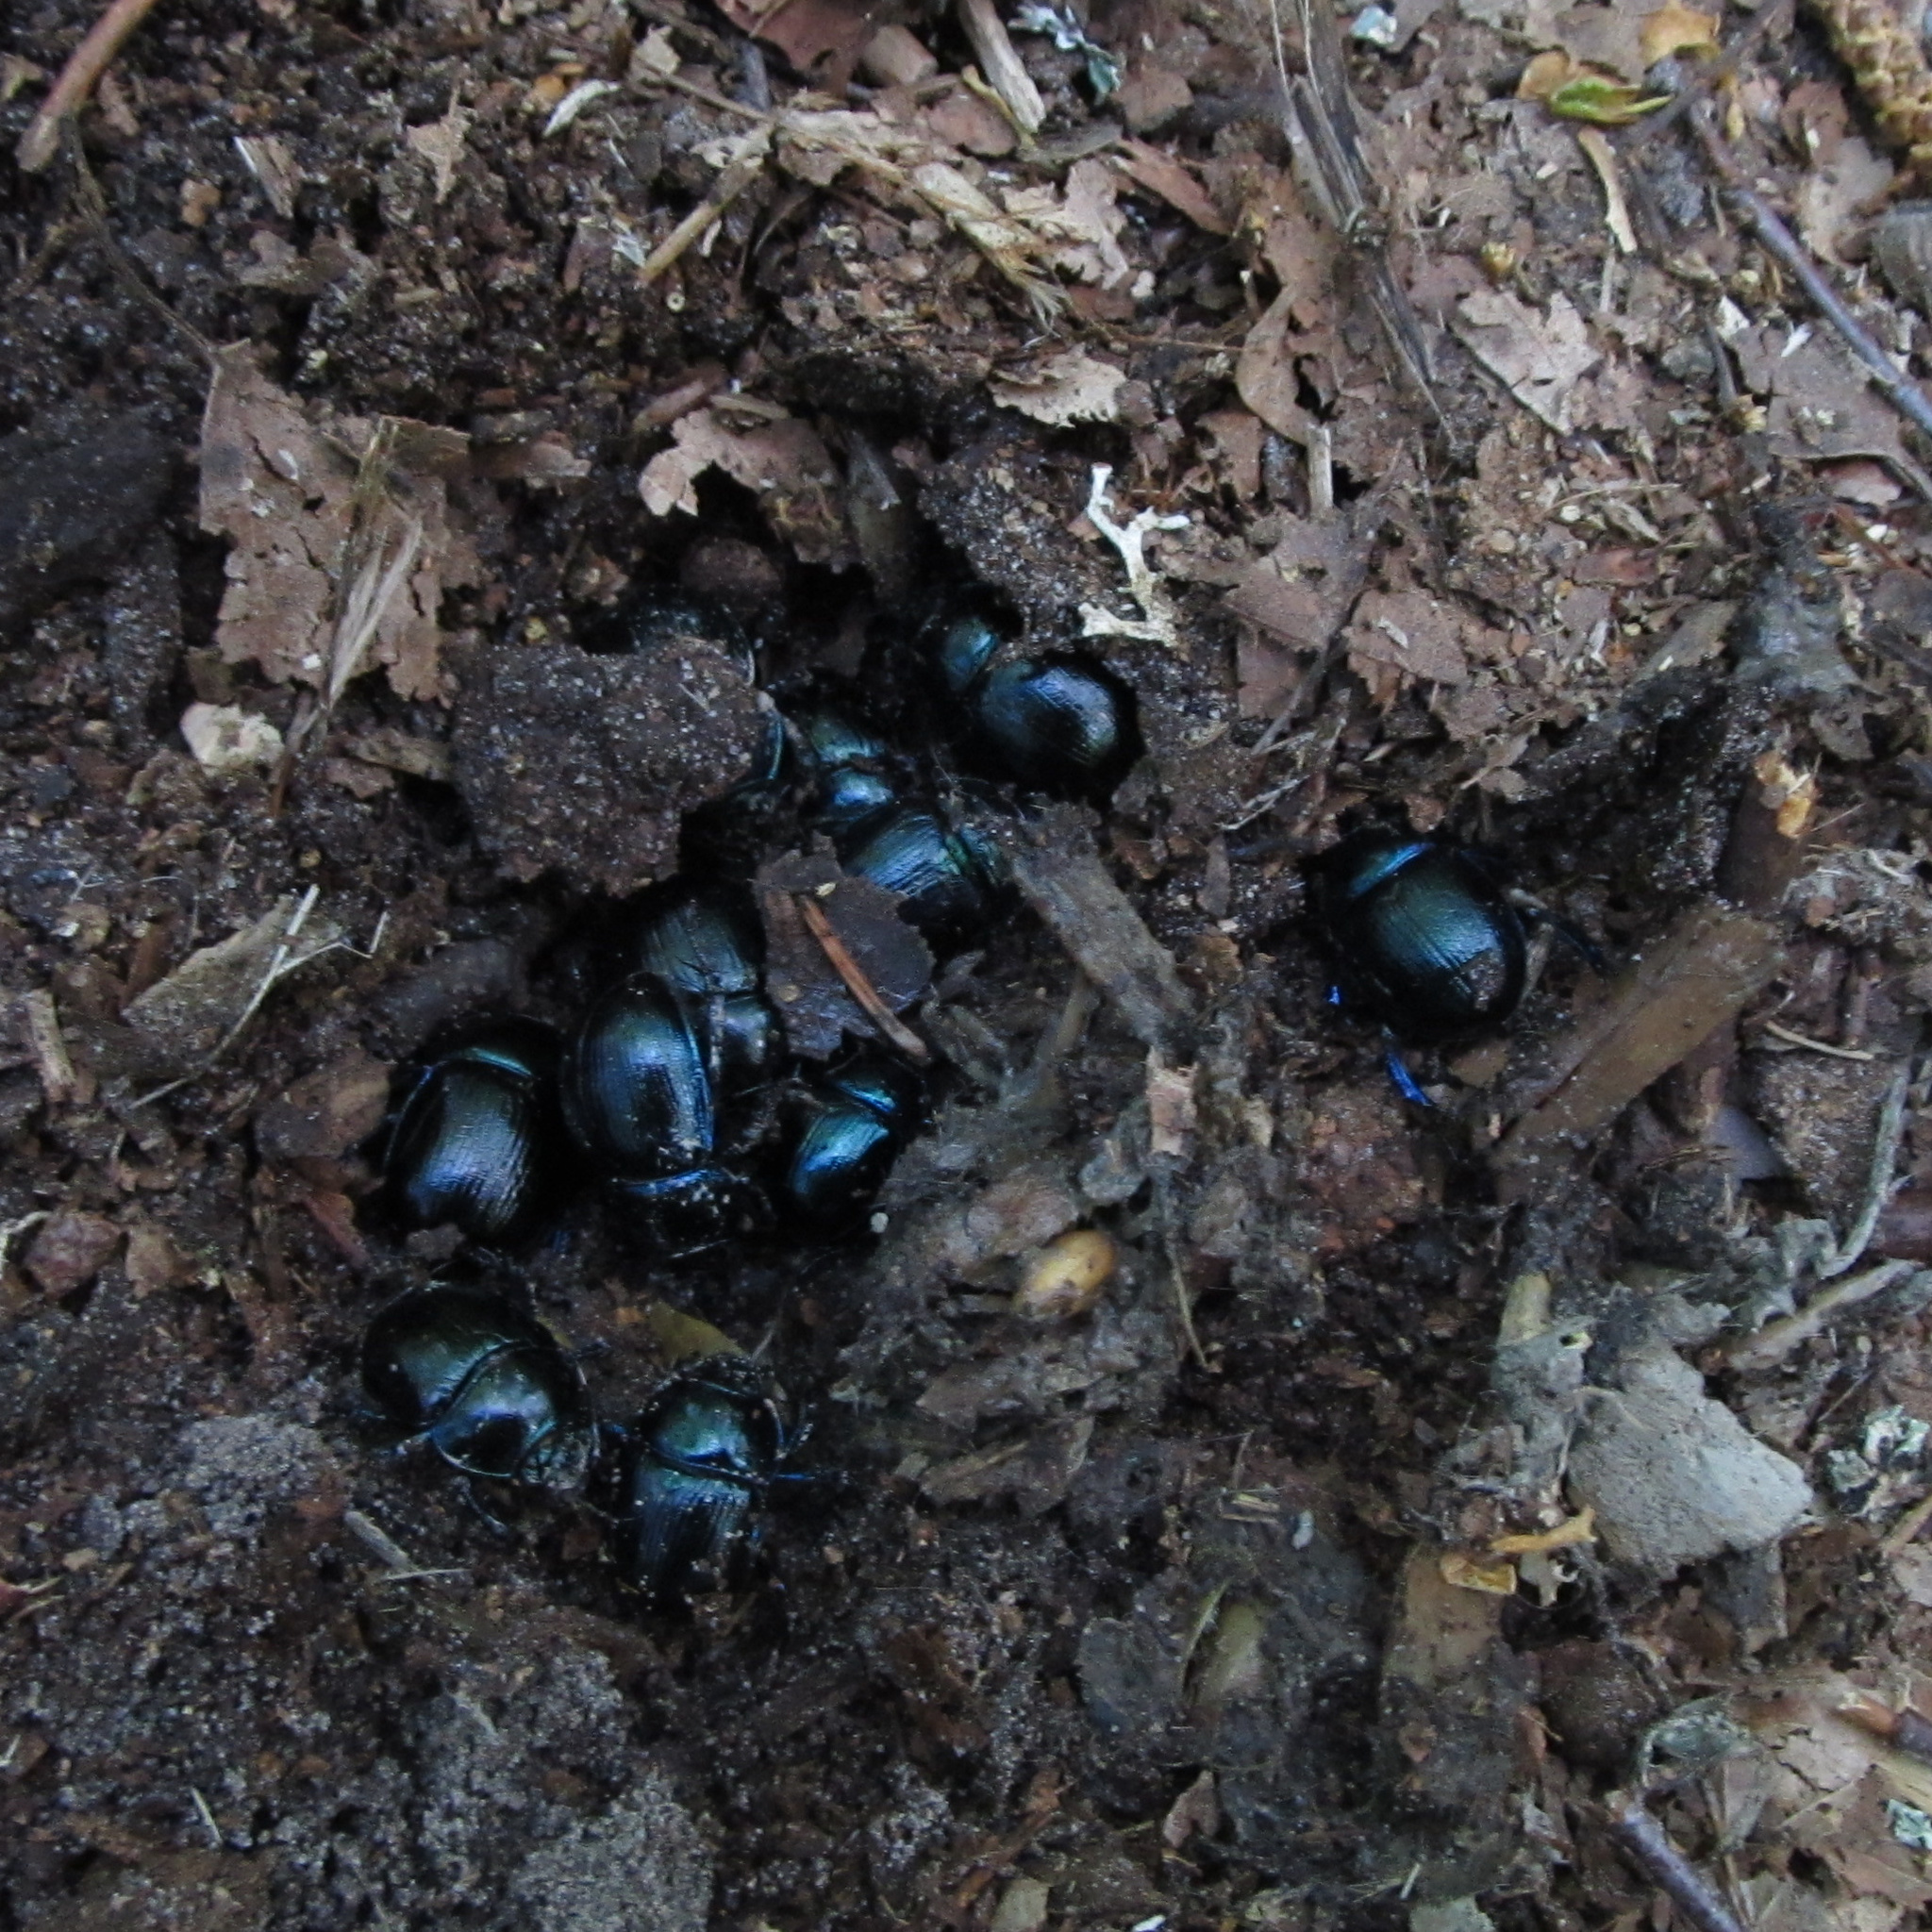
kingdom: Animalia
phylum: Arthropoda
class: Insecta
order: Coleoptera
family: Geotrupidae
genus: Anoplotrupes
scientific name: Anoplotrupes stercorosus
